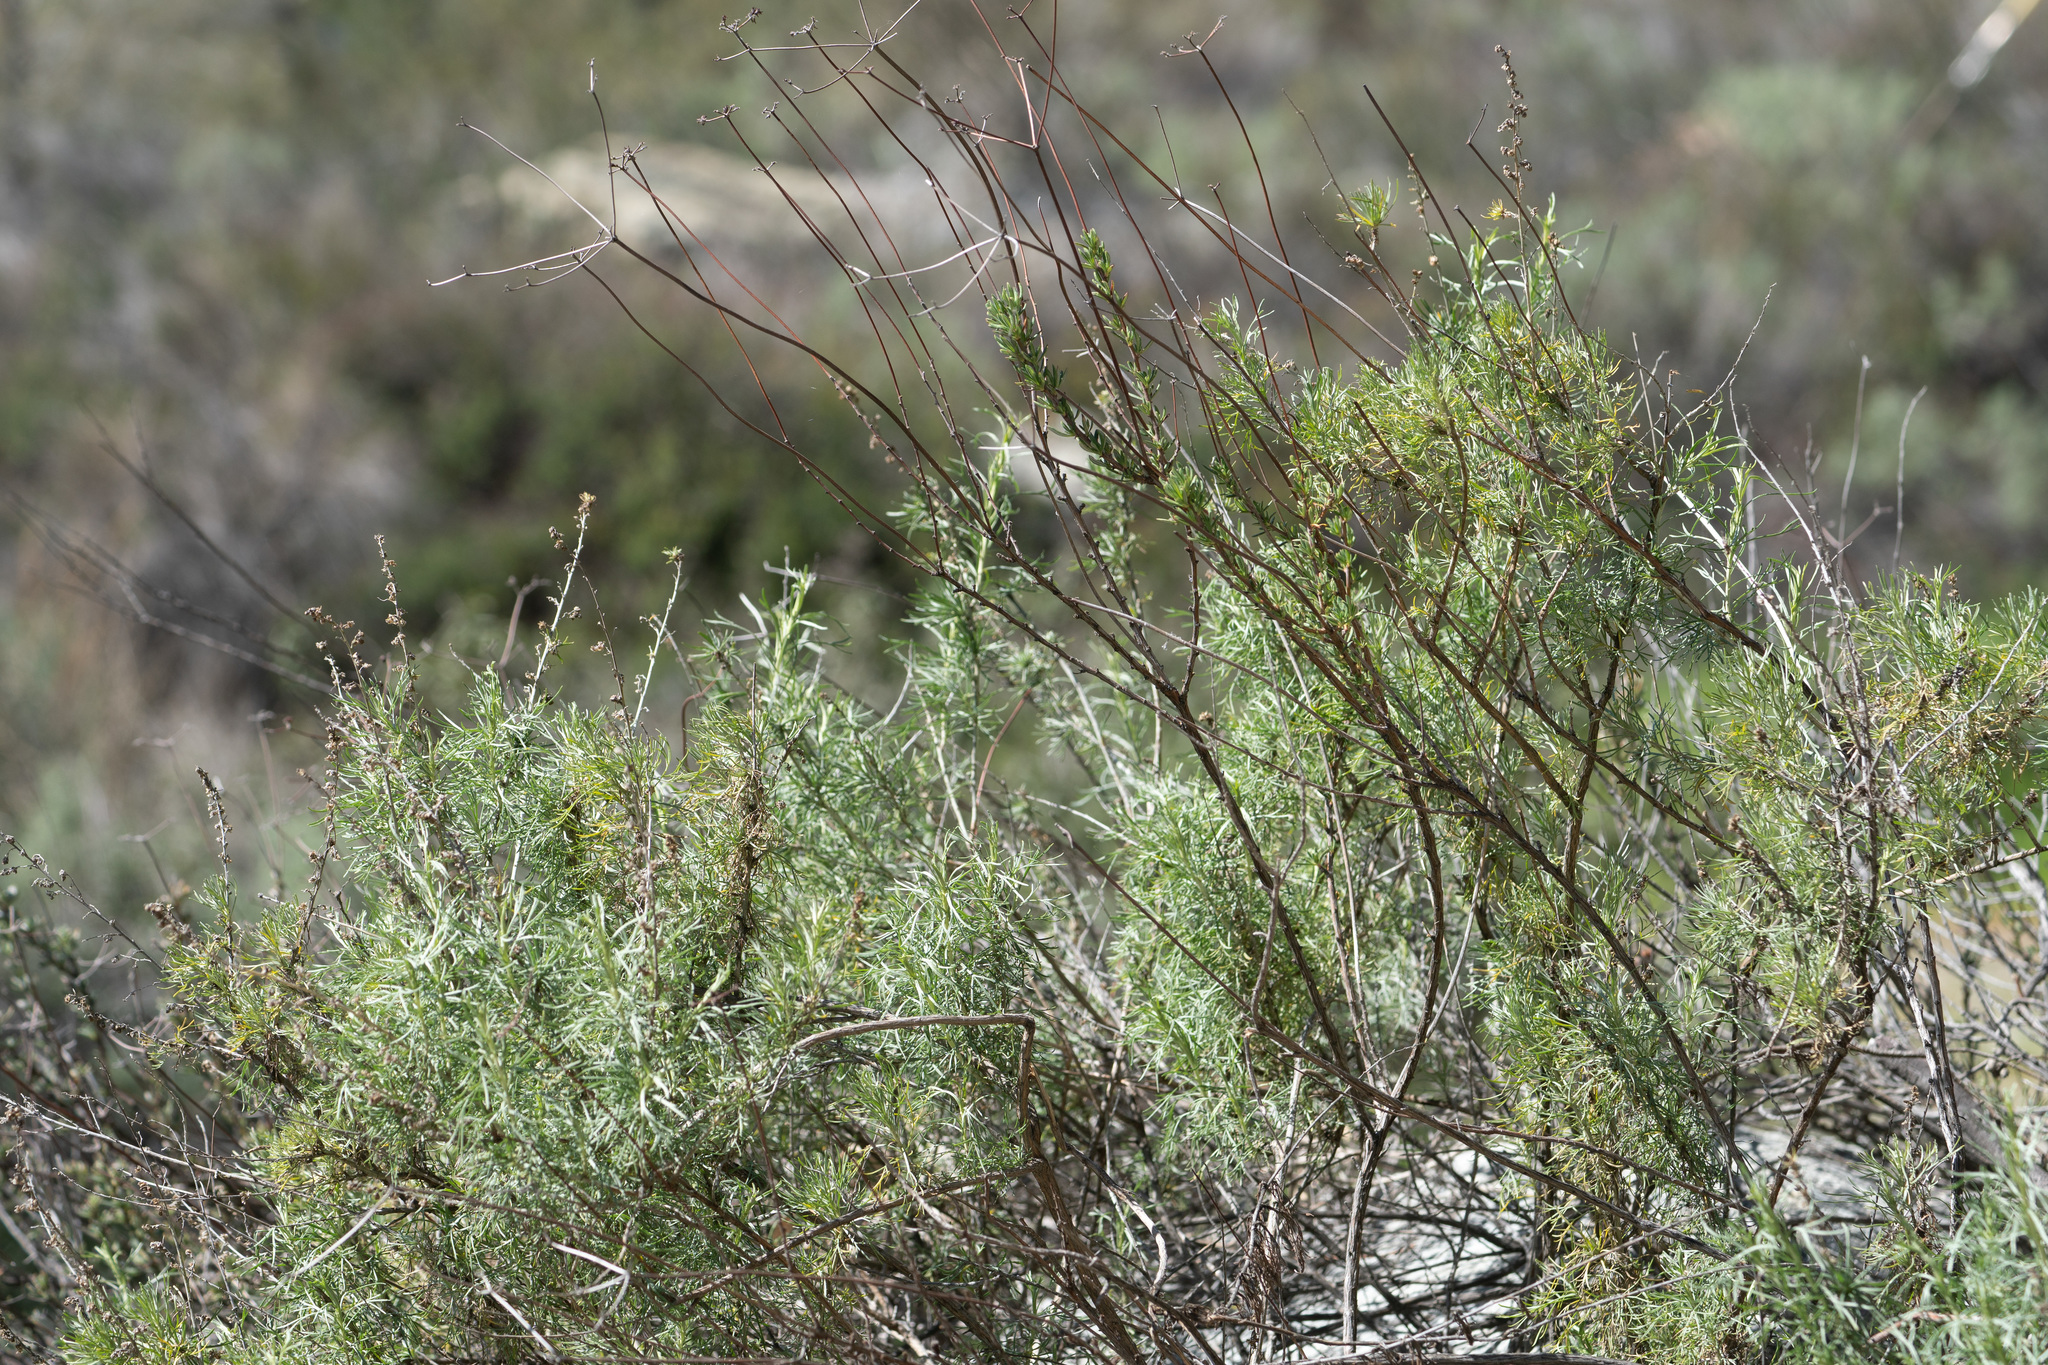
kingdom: Plantae
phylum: Tracheophyta
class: Magnoliopsida
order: Asterales
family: Asteraceae
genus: Artemisia
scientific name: Artemisia californica
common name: California sagebrush
